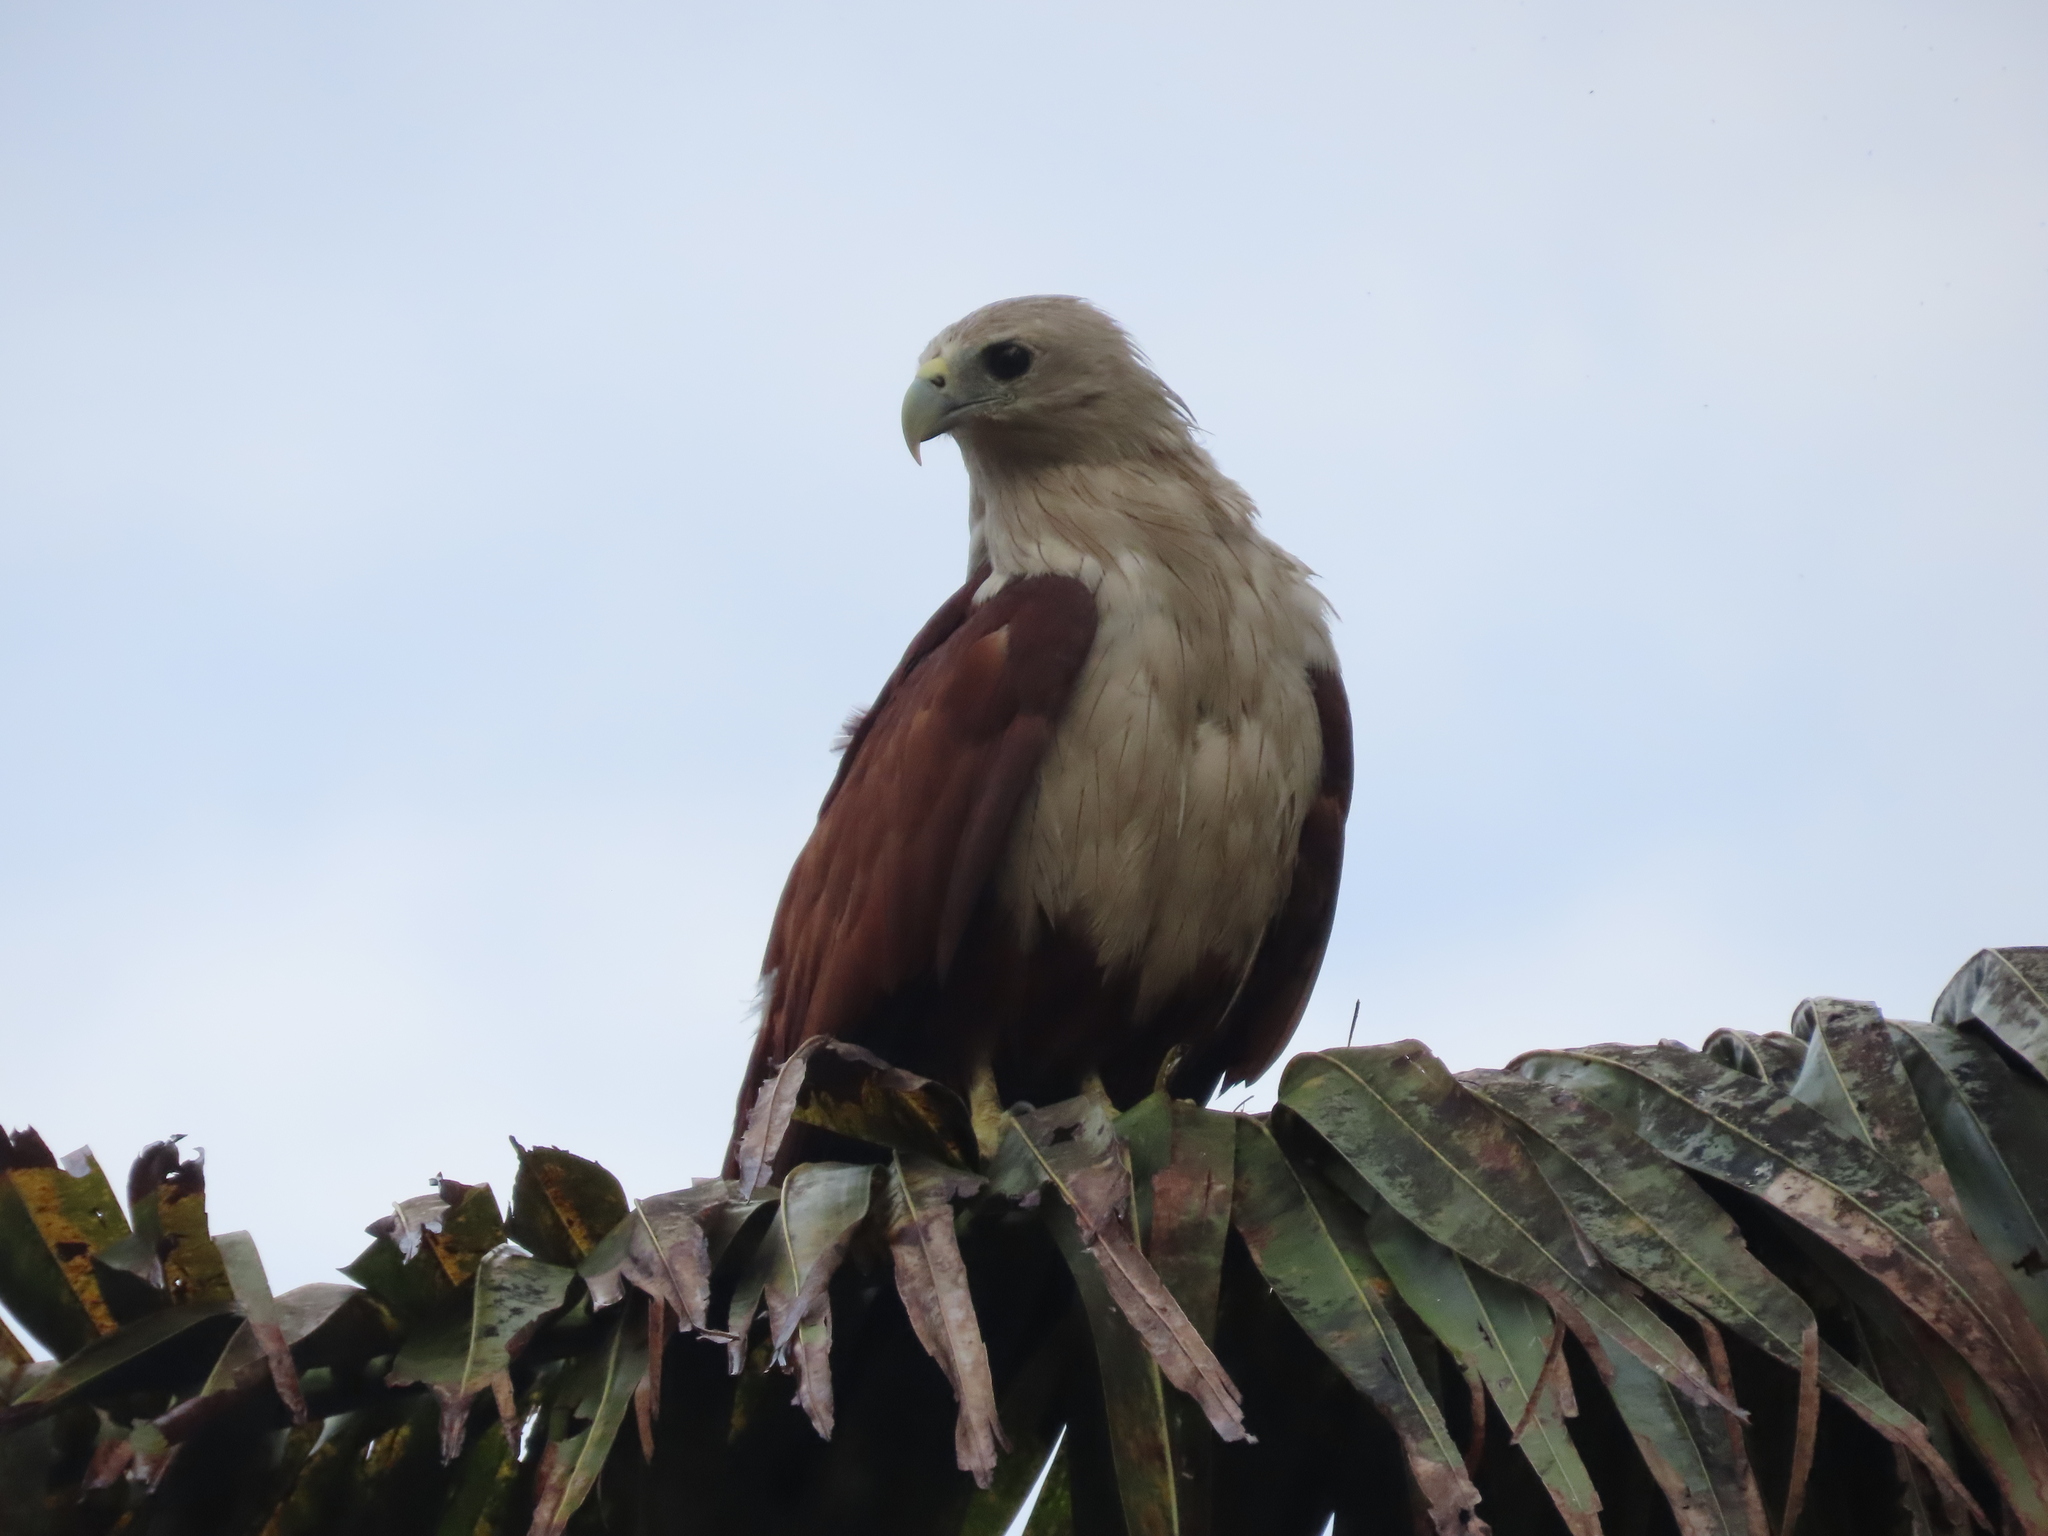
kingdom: Animalia
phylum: Chordata
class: Aves
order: Accipitriformes
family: Accipitridae
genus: Haliastur
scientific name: Haliastur indus
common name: Brahminy kite
